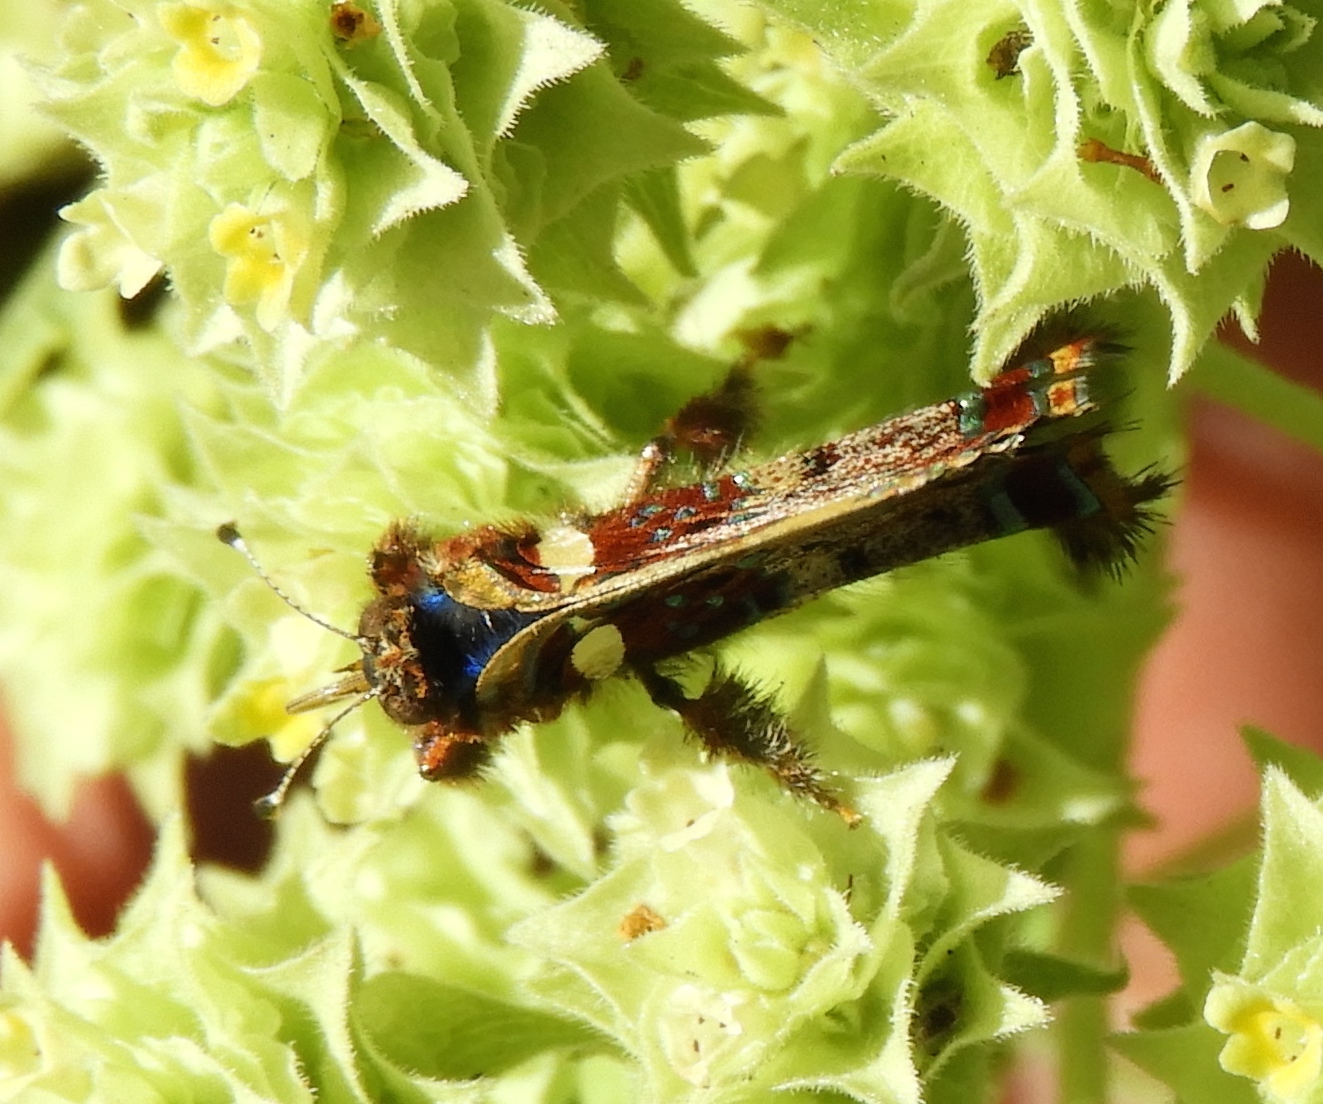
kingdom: Animalia
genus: Anteros
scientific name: Anteros carausius
